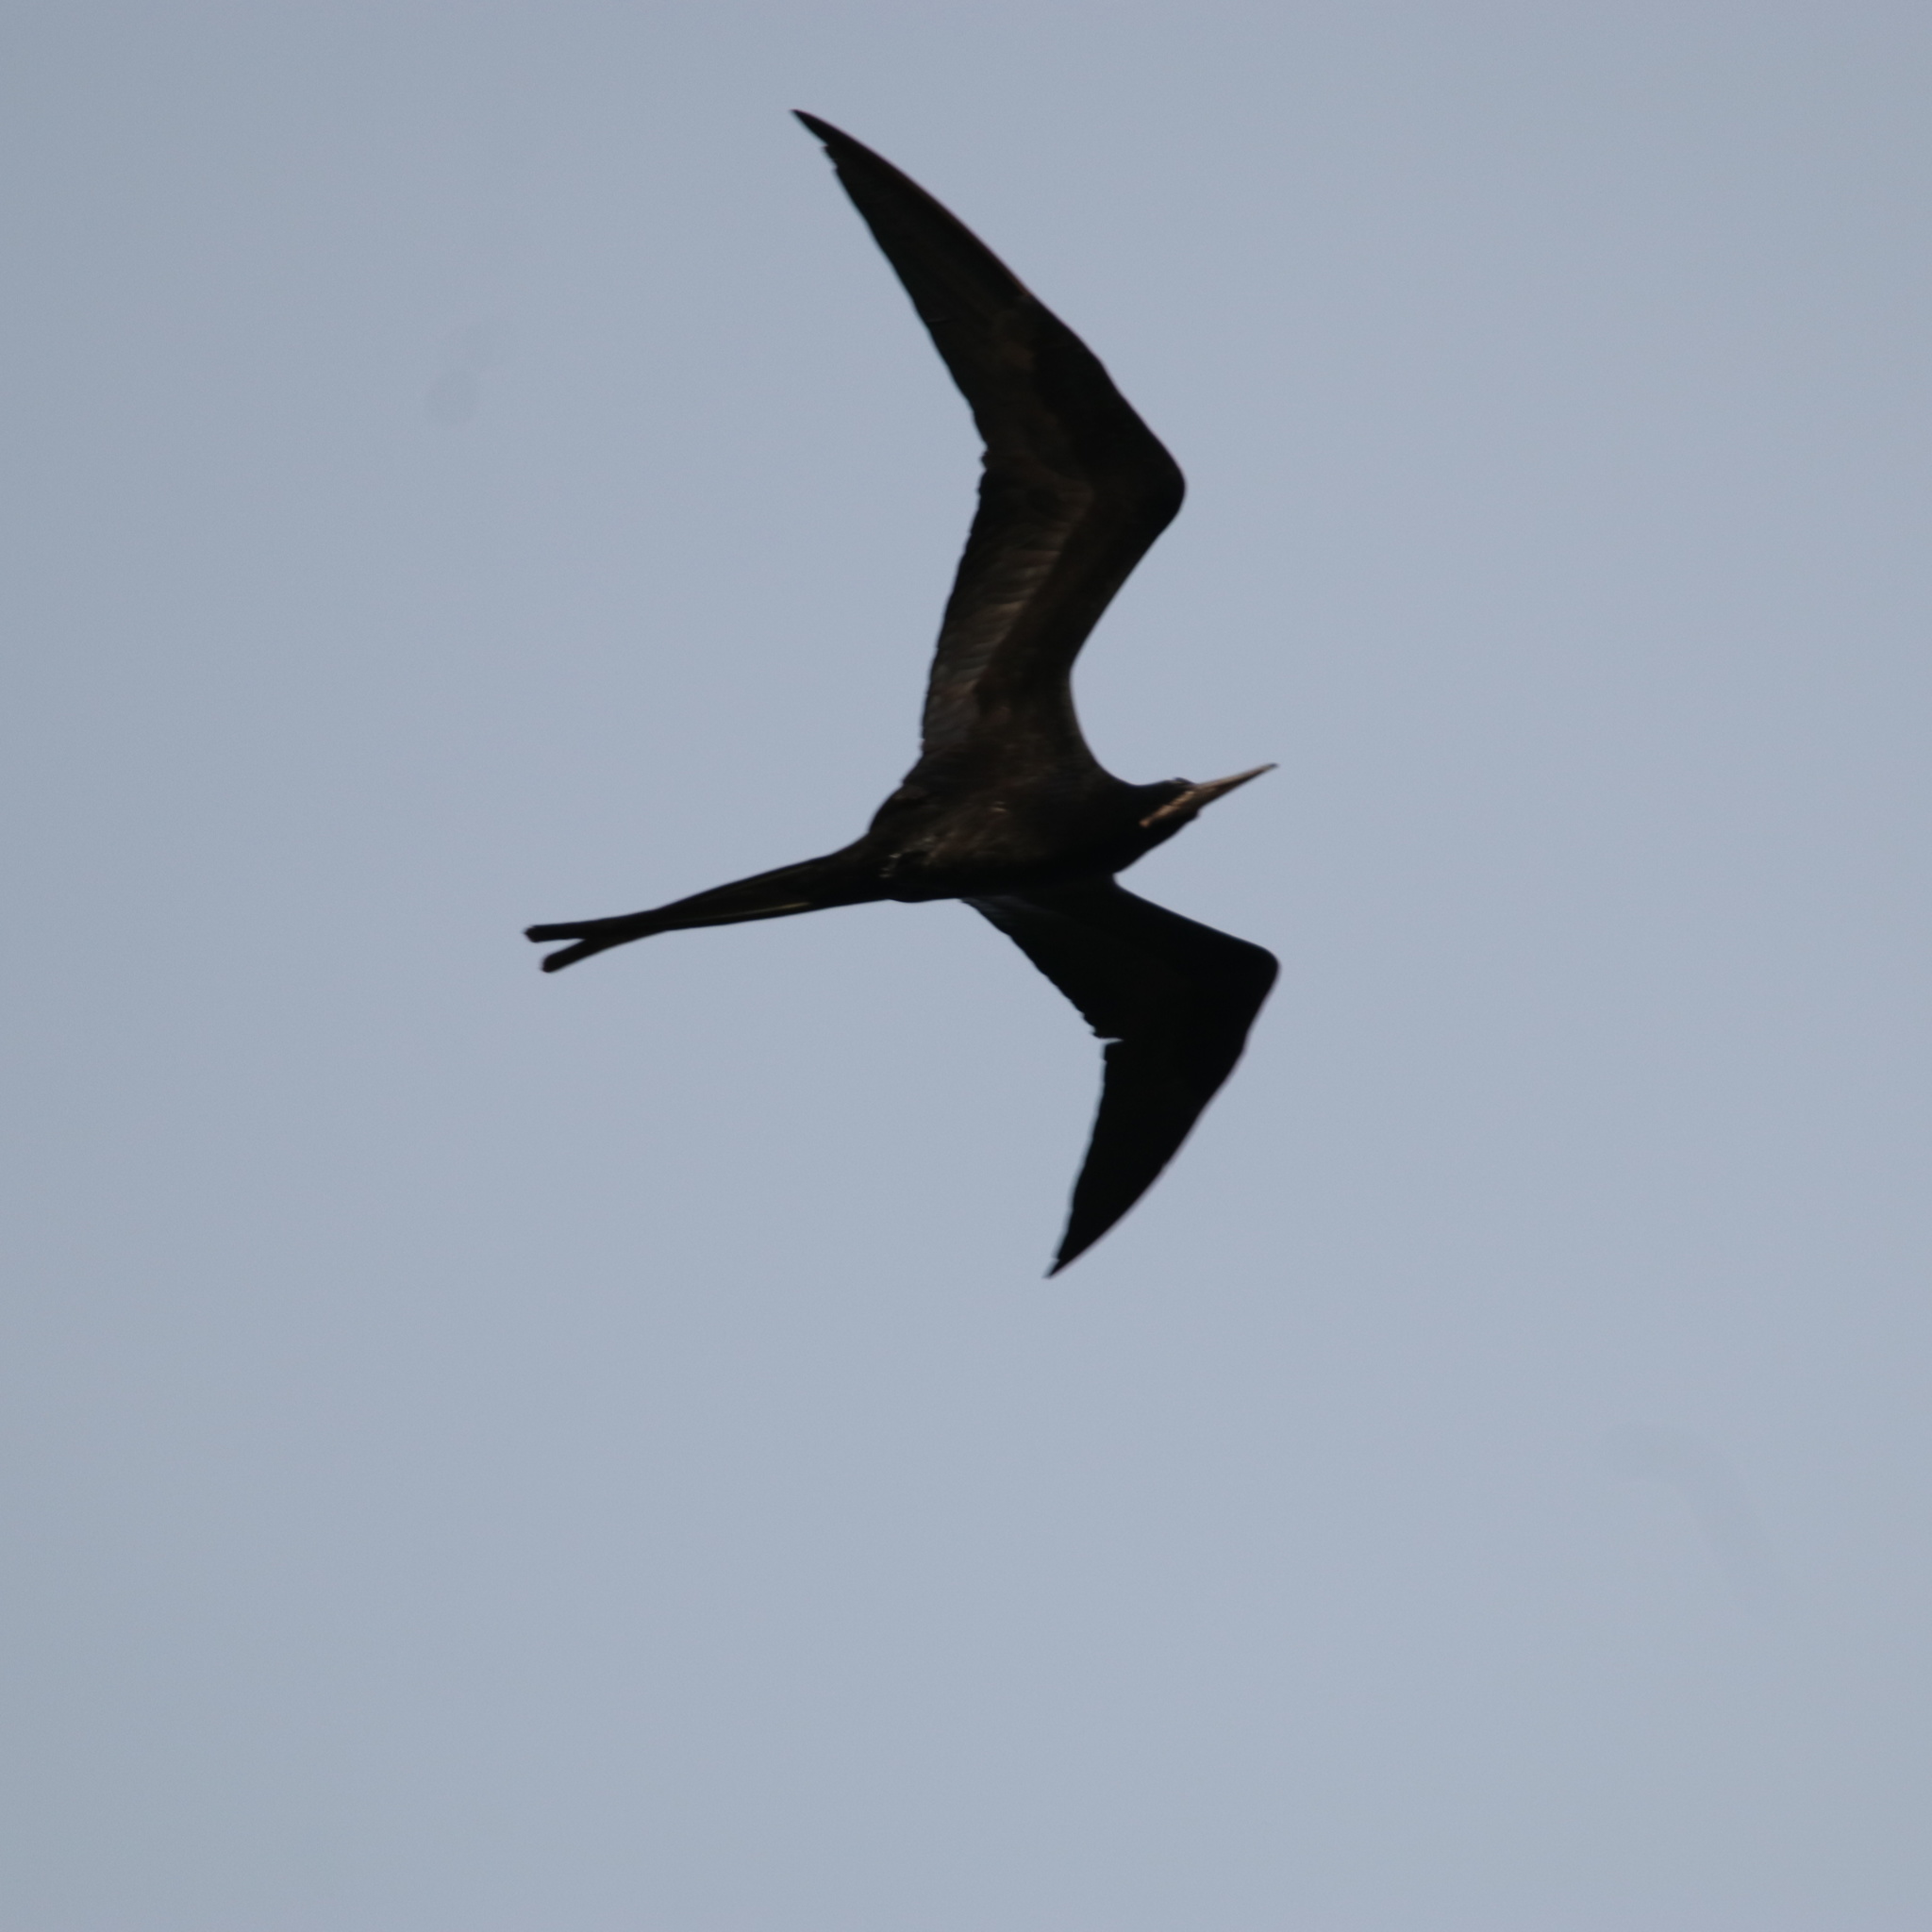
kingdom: Animalia
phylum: Chordata
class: Aves
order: Suliformes
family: Fregatidae
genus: Fregata
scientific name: Fregata magnificens
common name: Magnificent frigatebird
